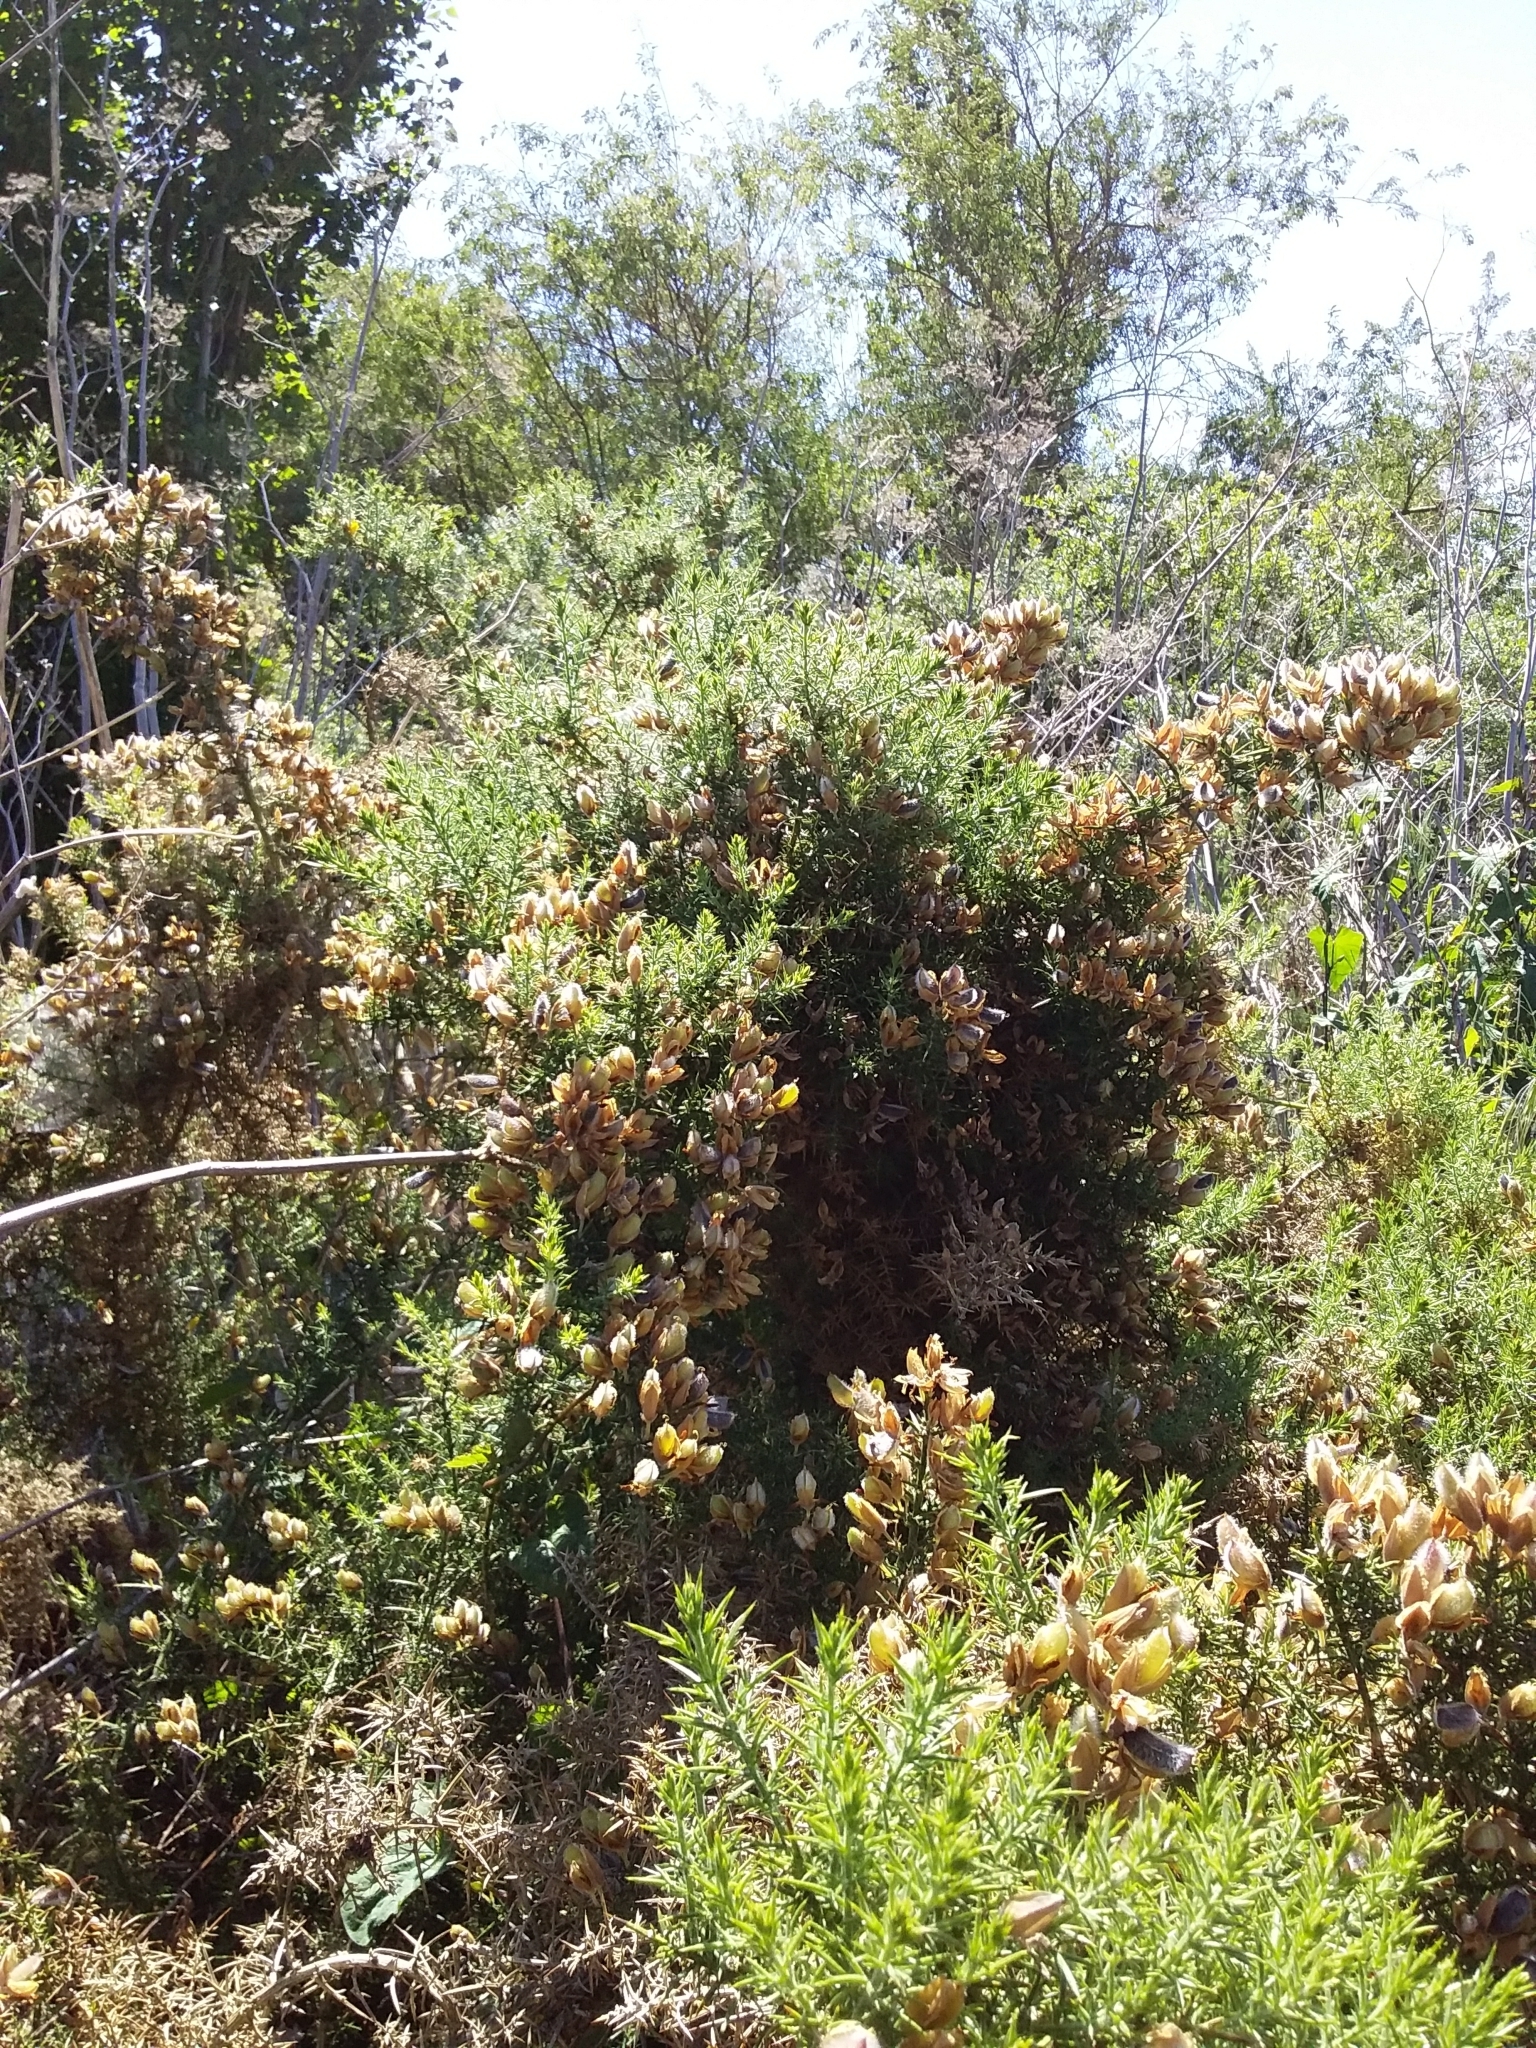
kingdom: Plantae
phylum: Tracheophyta
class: Magnoliopsida
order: Fabales
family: Fabaceae
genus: Ulex
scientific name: Ulex europaeus
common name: Common gorse
